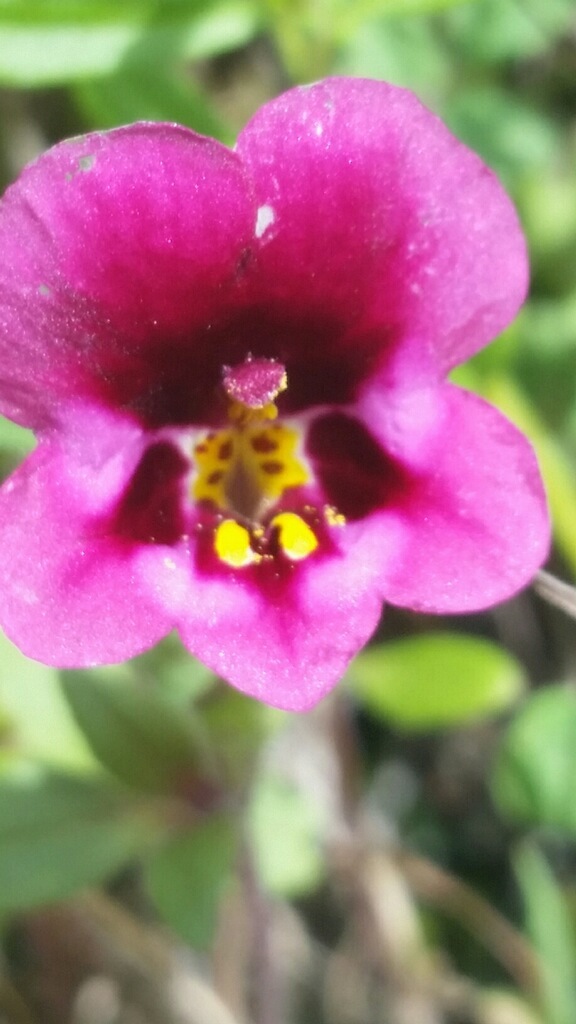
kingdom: Plantae
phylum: Tracheophyta
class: Magnoliopsida
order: Lamiales
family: Phrymaceae
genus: Diplacus
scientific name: Diplacus kelloggii
